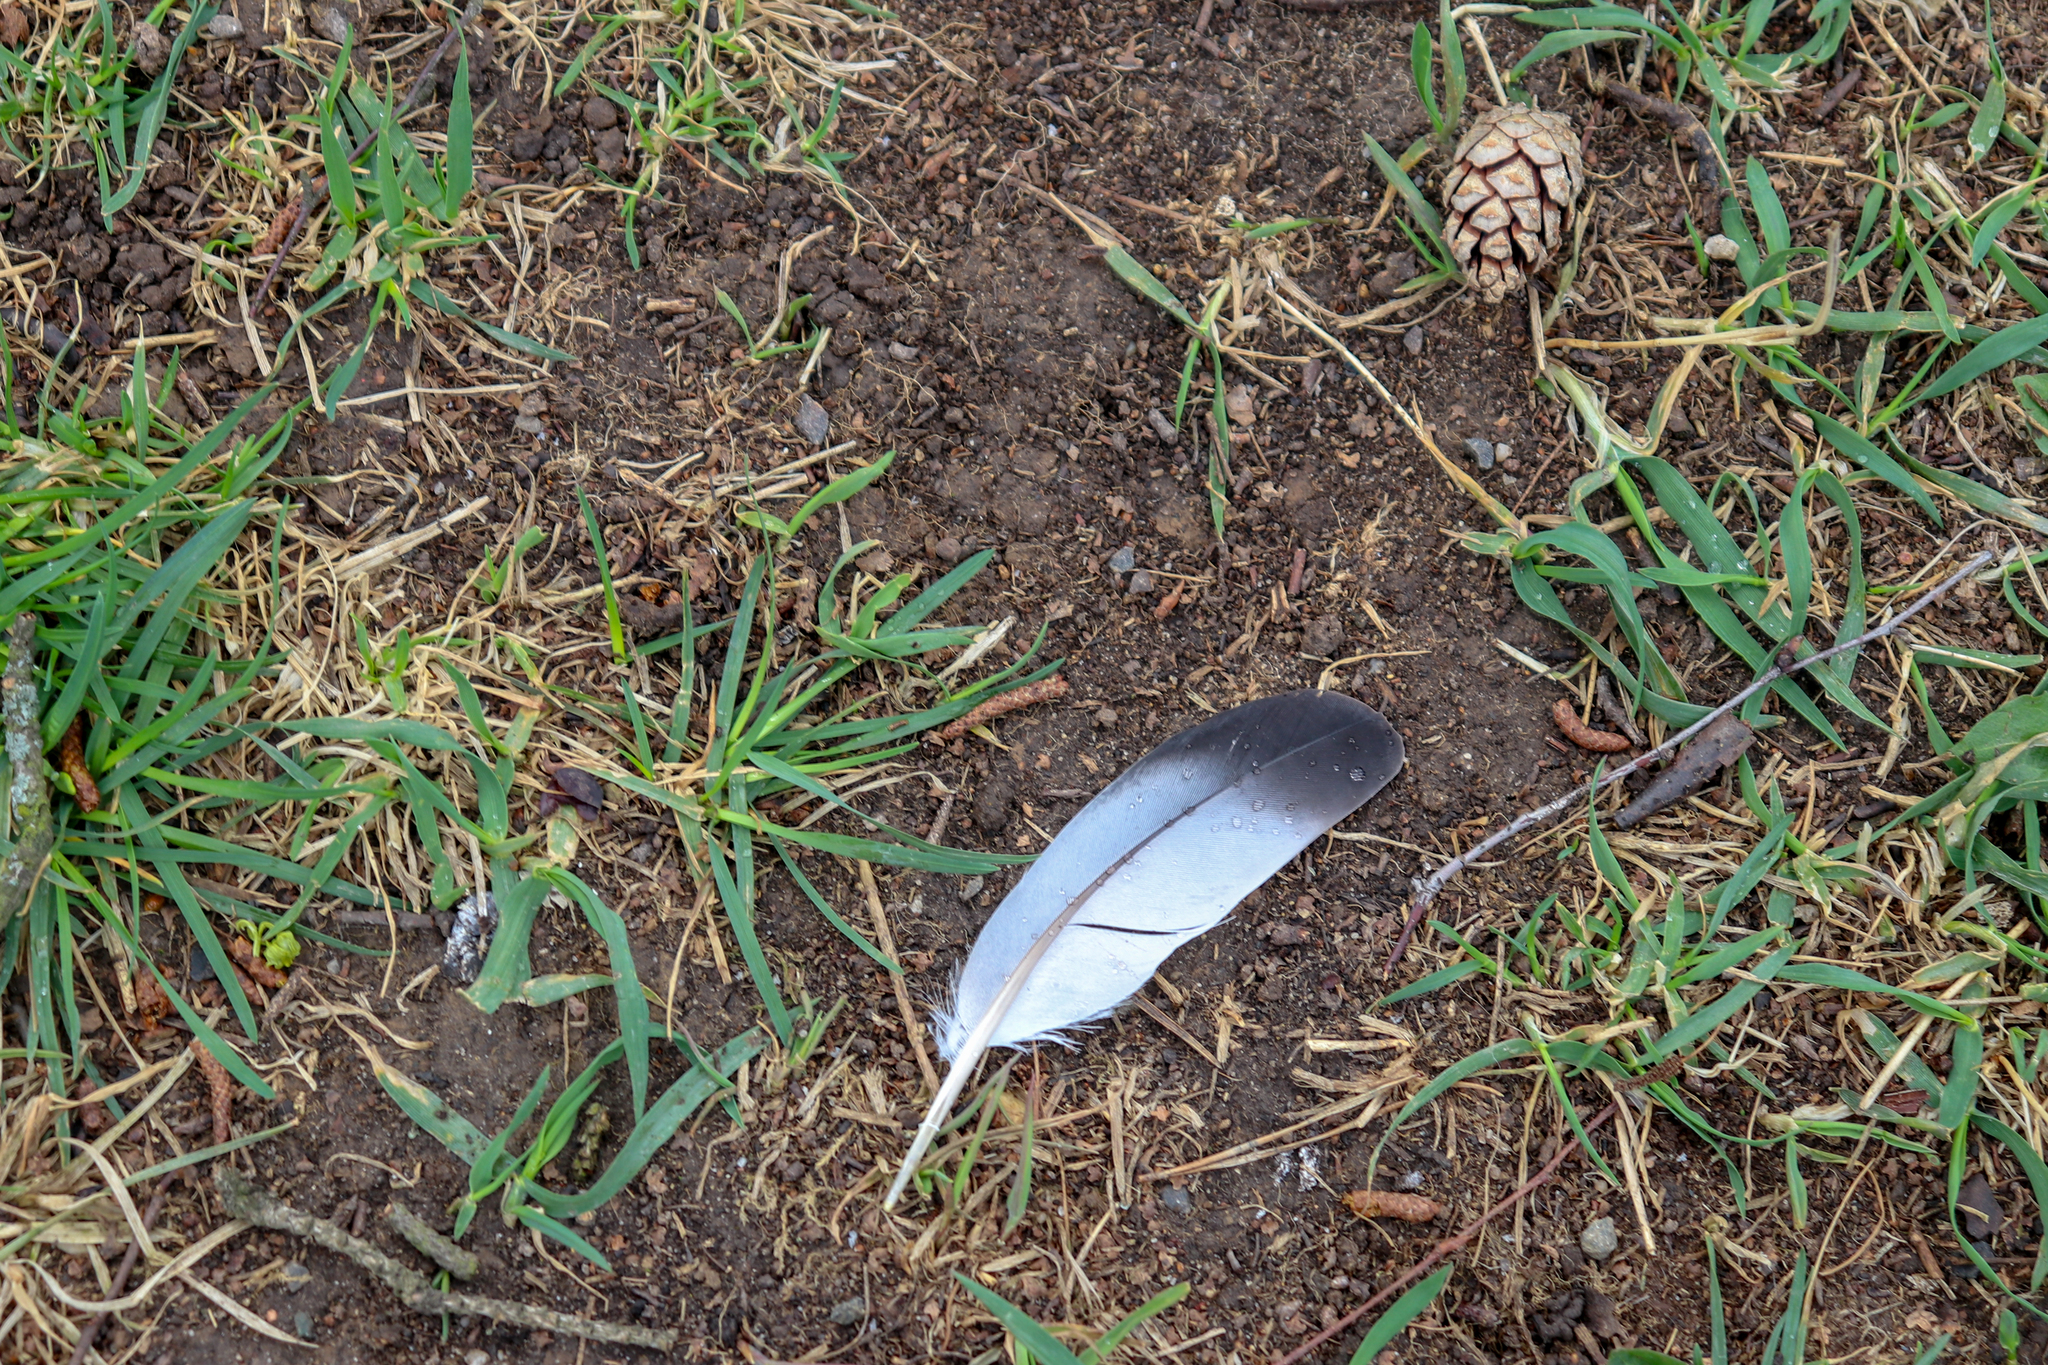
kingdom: Animalia
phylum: Chordata
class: Aves
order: Columbiformes
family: Columbidae
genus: Columba
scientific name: Columba livia
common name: Rock pigeon
